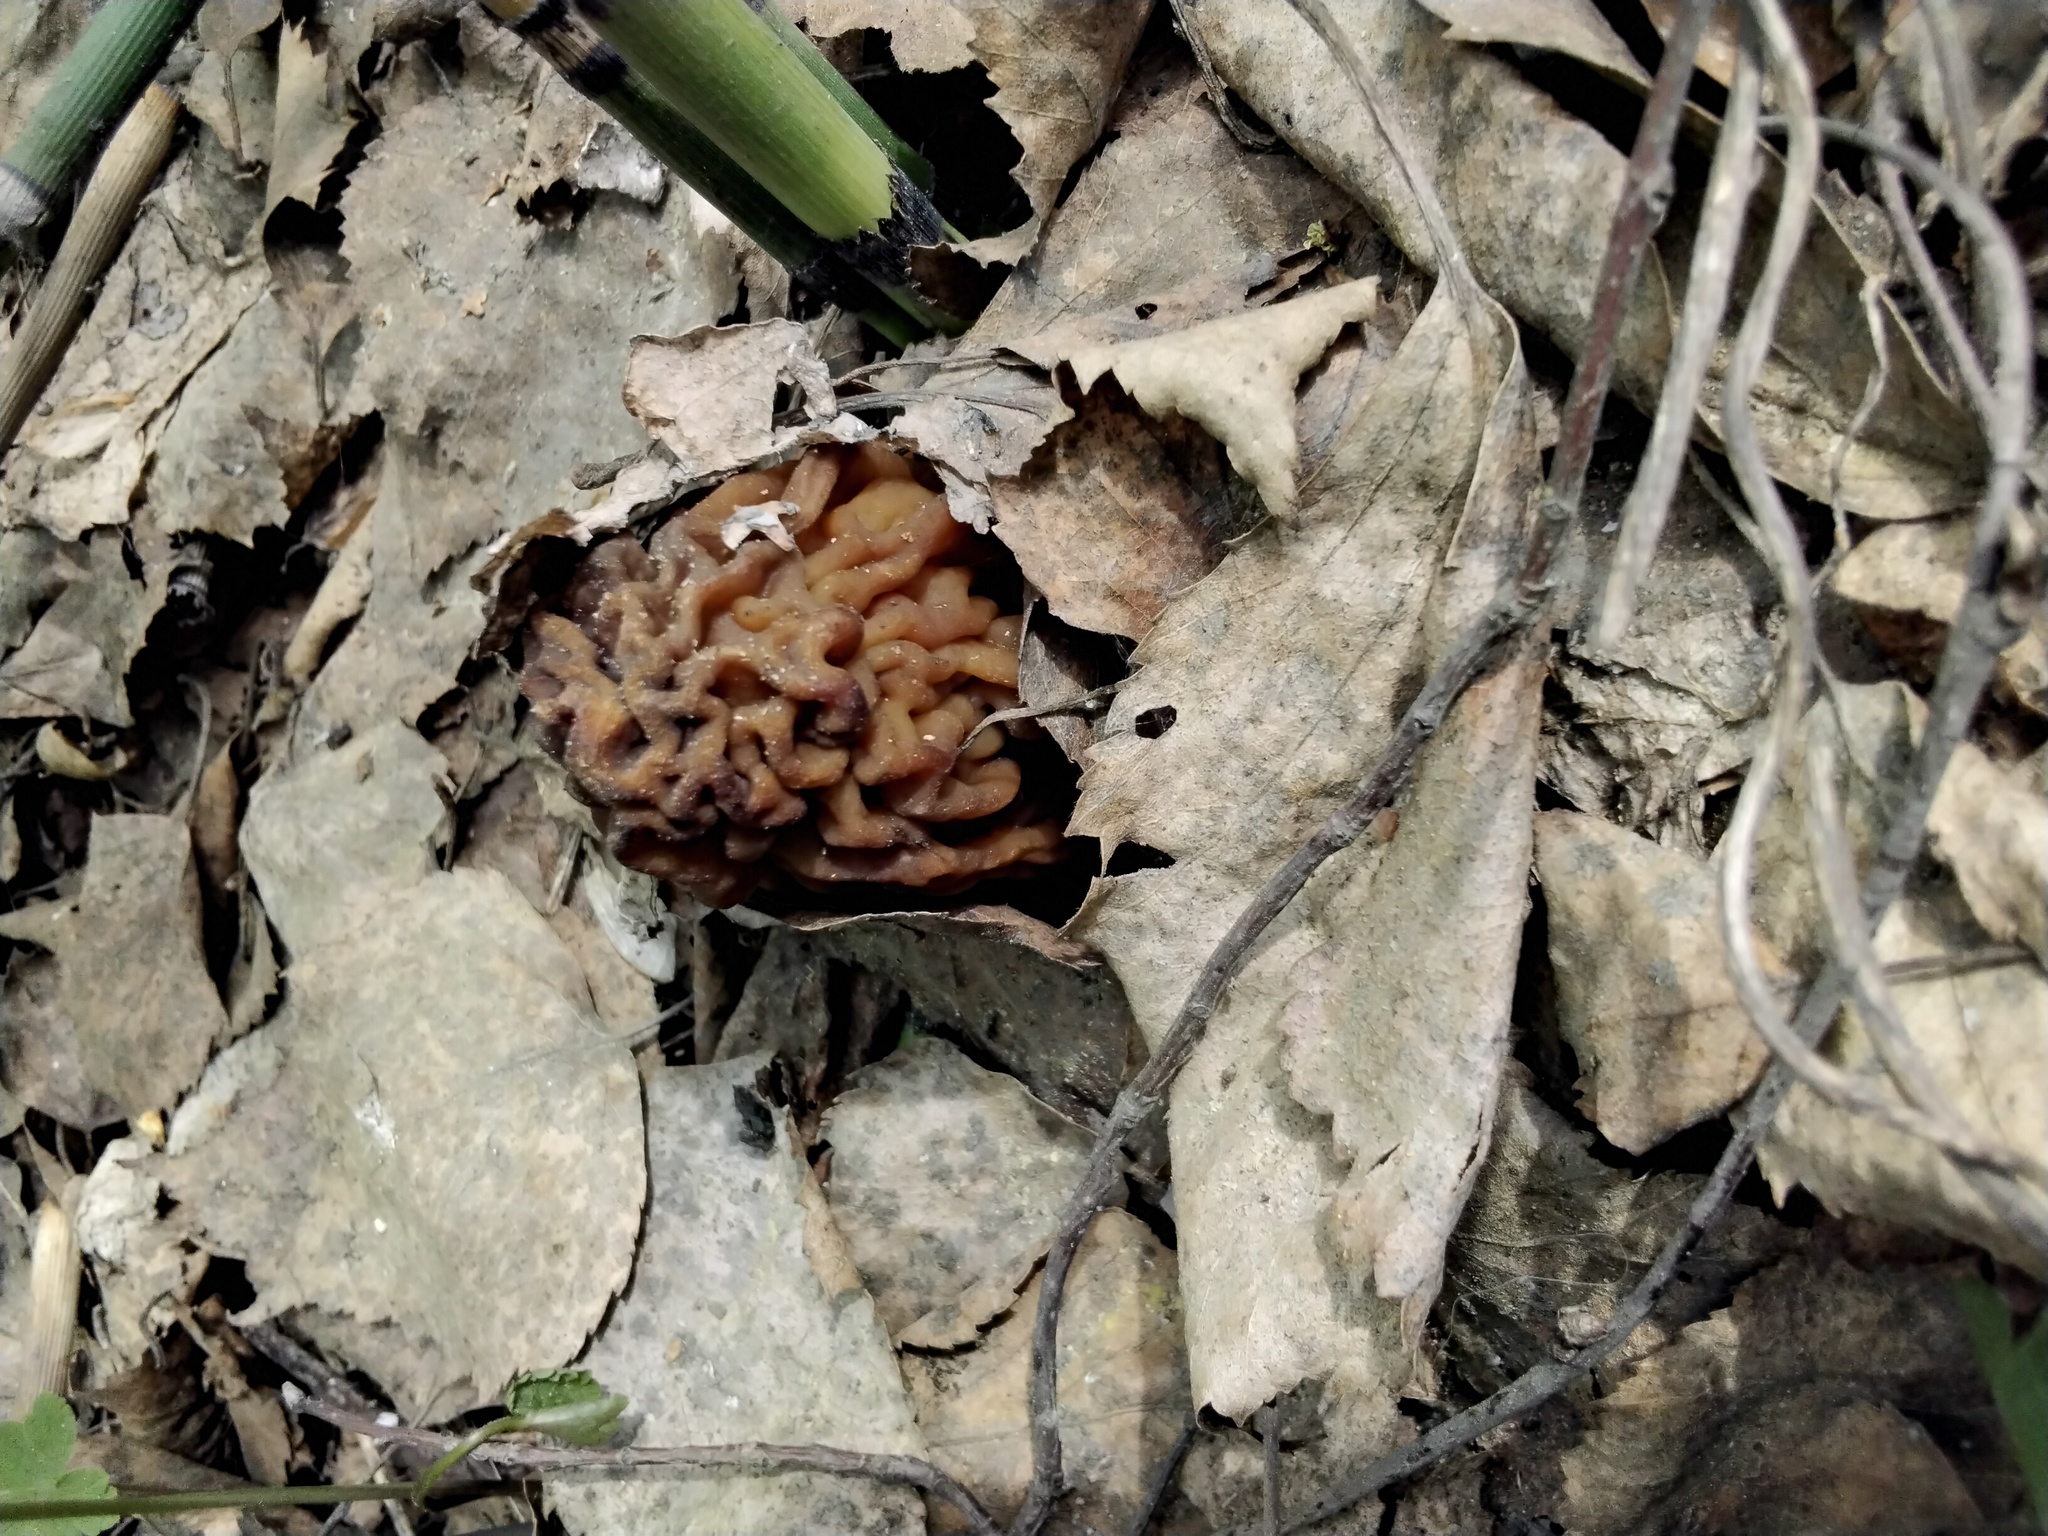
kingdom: Fungi
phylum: Ascomycota
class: Pezizomycetes
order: Pezizales
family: Morchellaceae
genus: Verpa
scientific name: Verpa bohemica
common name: Wrinkled thimble morel
